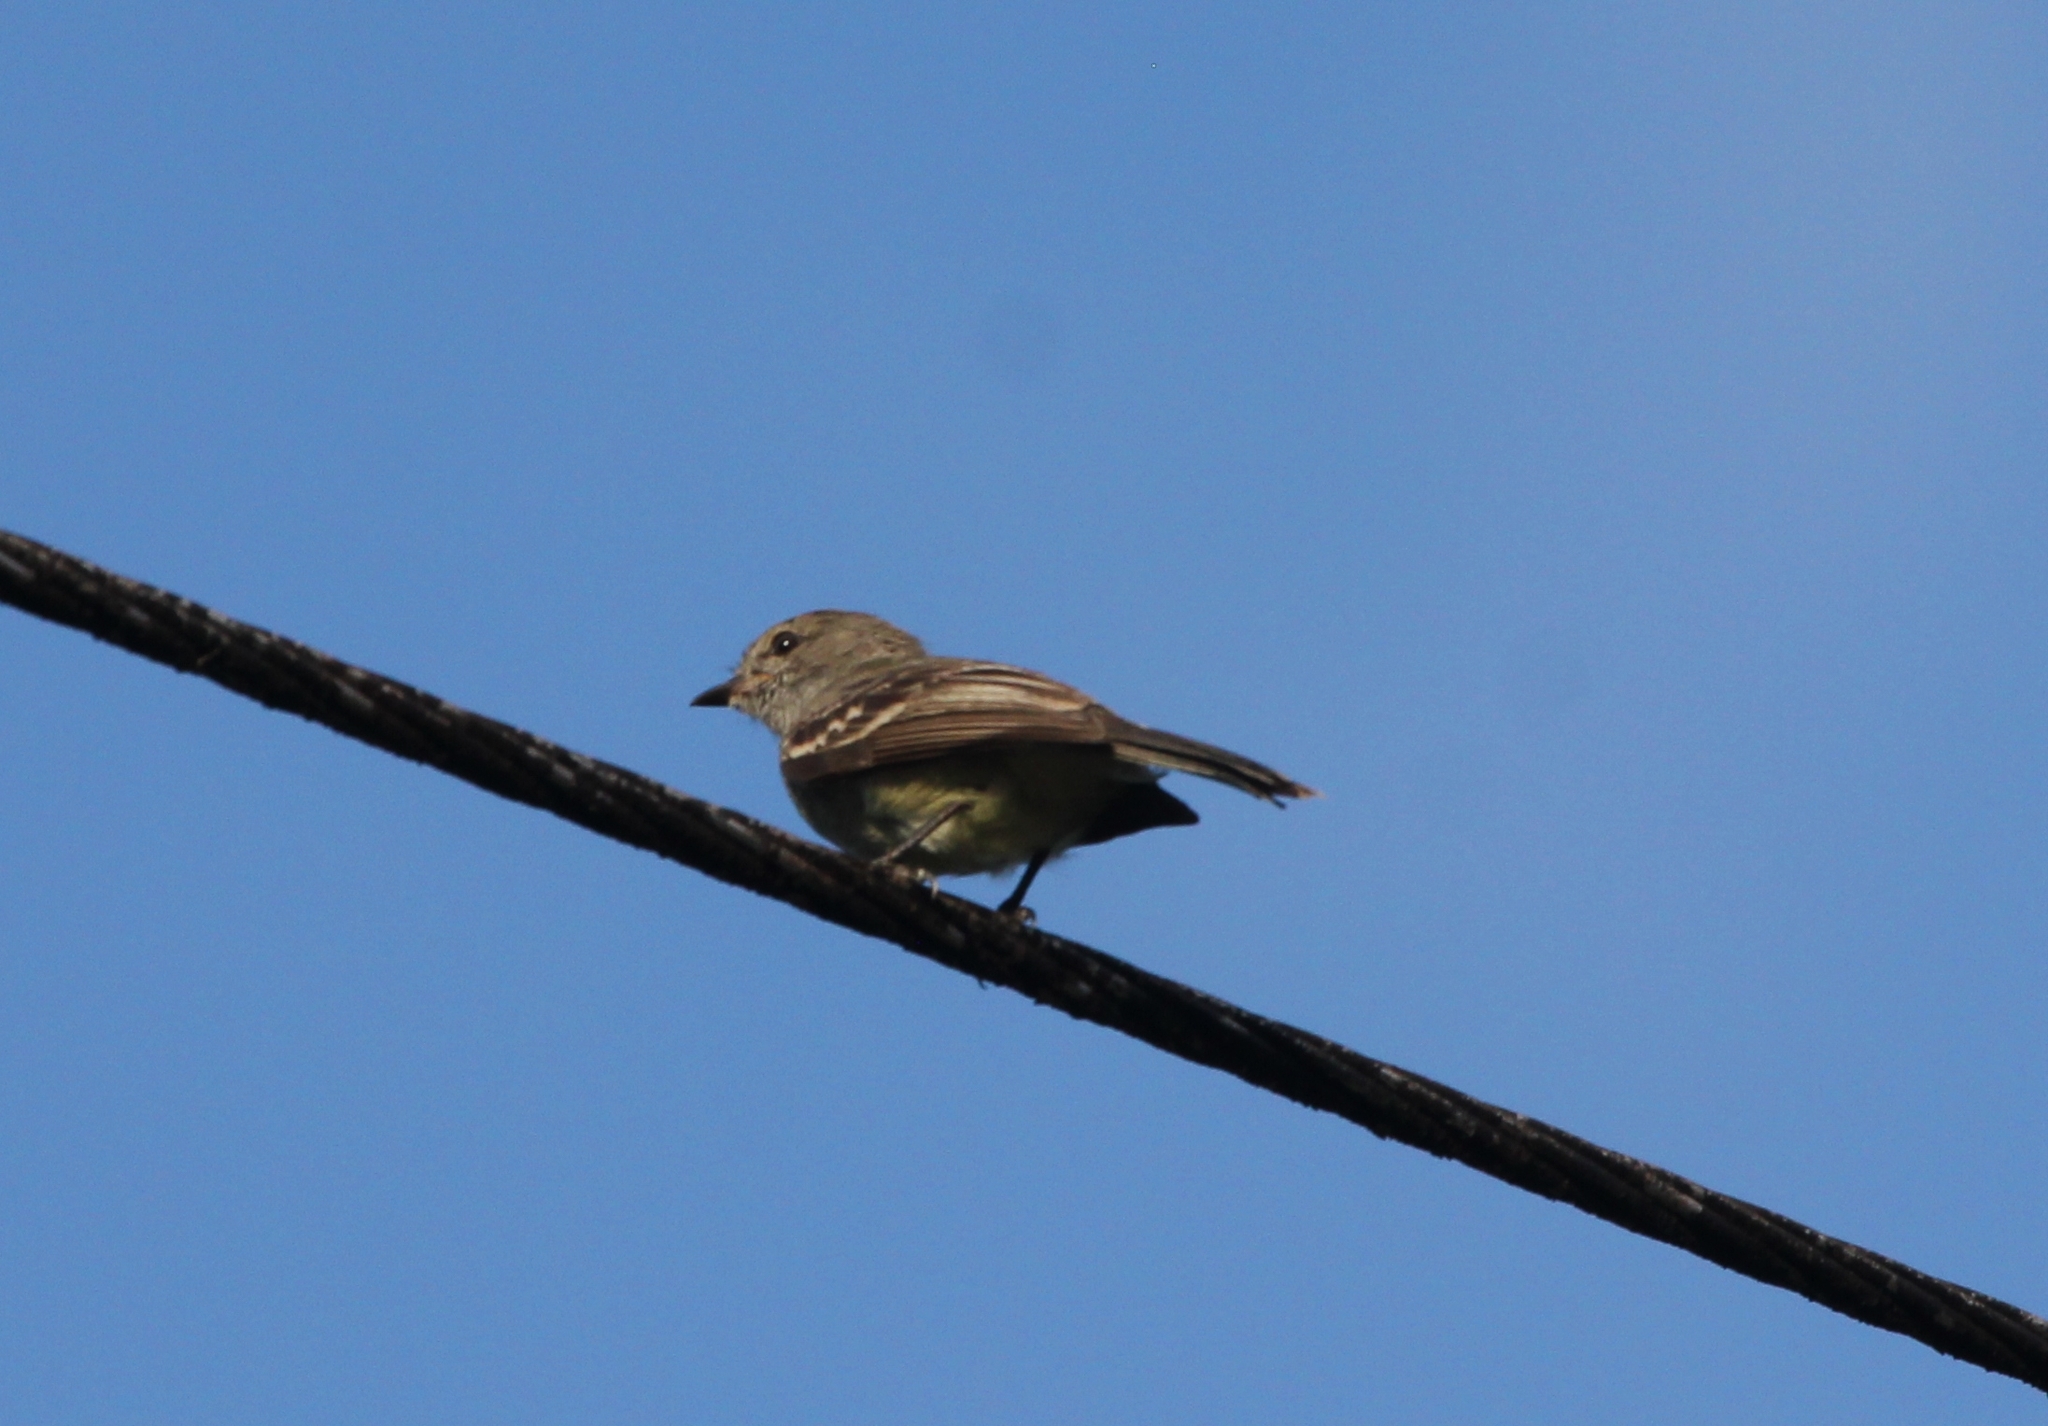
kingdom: Animalia
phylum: Chordata
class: Aves
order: Passeriformes
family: Tyrannidae
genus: Sublegatus
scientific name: Sublegatus obscurior
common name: Amazonian scrub flycatcher
